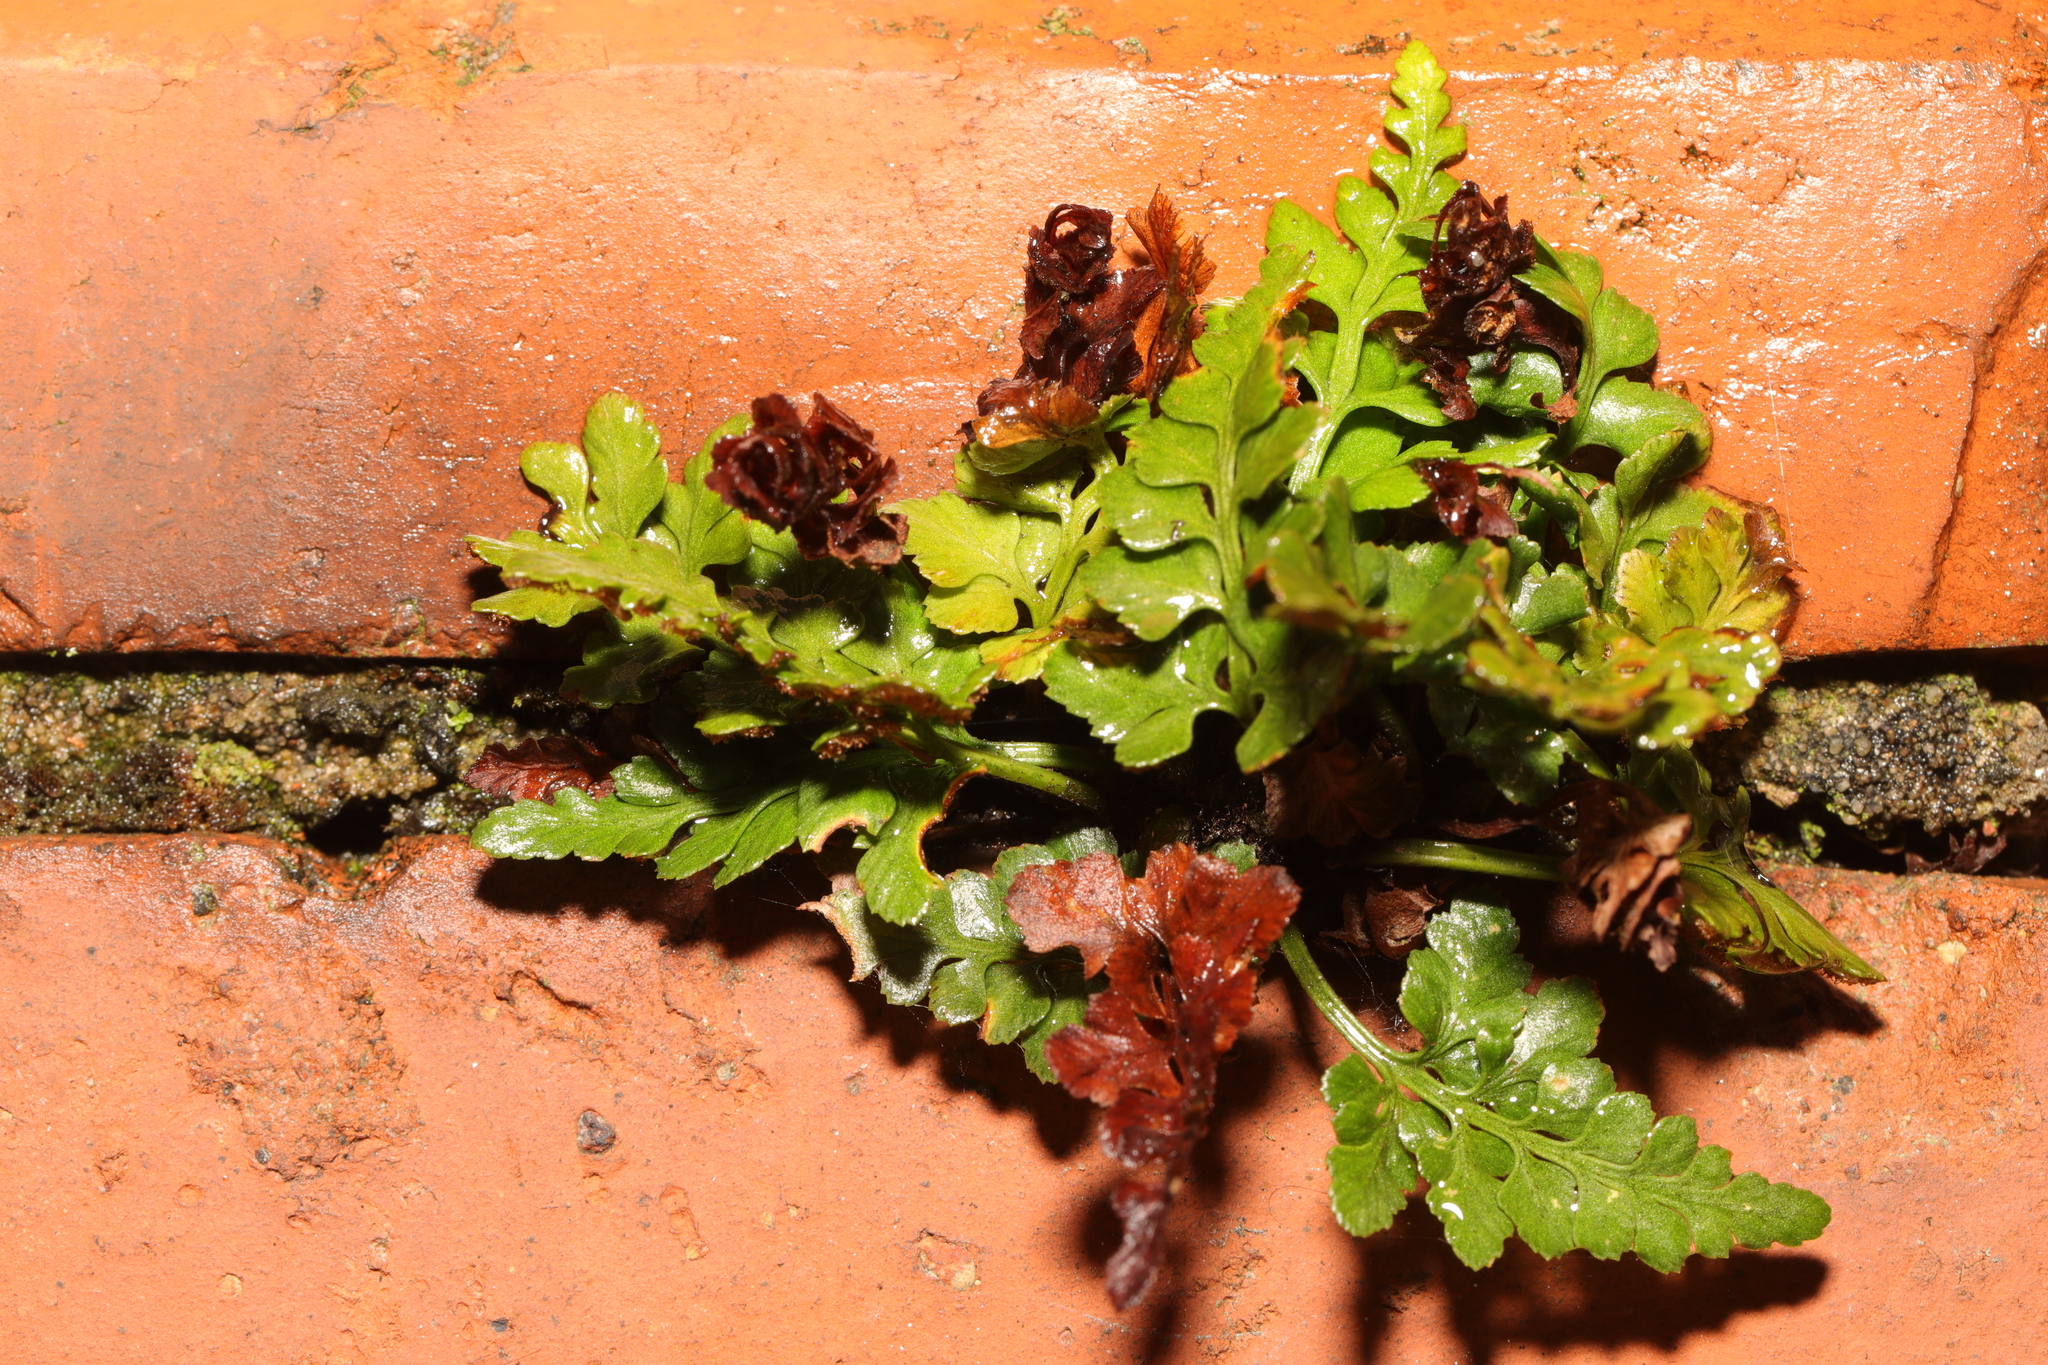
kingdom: Plantae
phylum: Tracheophyta
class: Polypodiopsida
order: Polypodiales
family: Aspleniaceae
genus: Asplenium
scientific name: Asplenium adiantum-nigrum
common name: Black spleenwort
